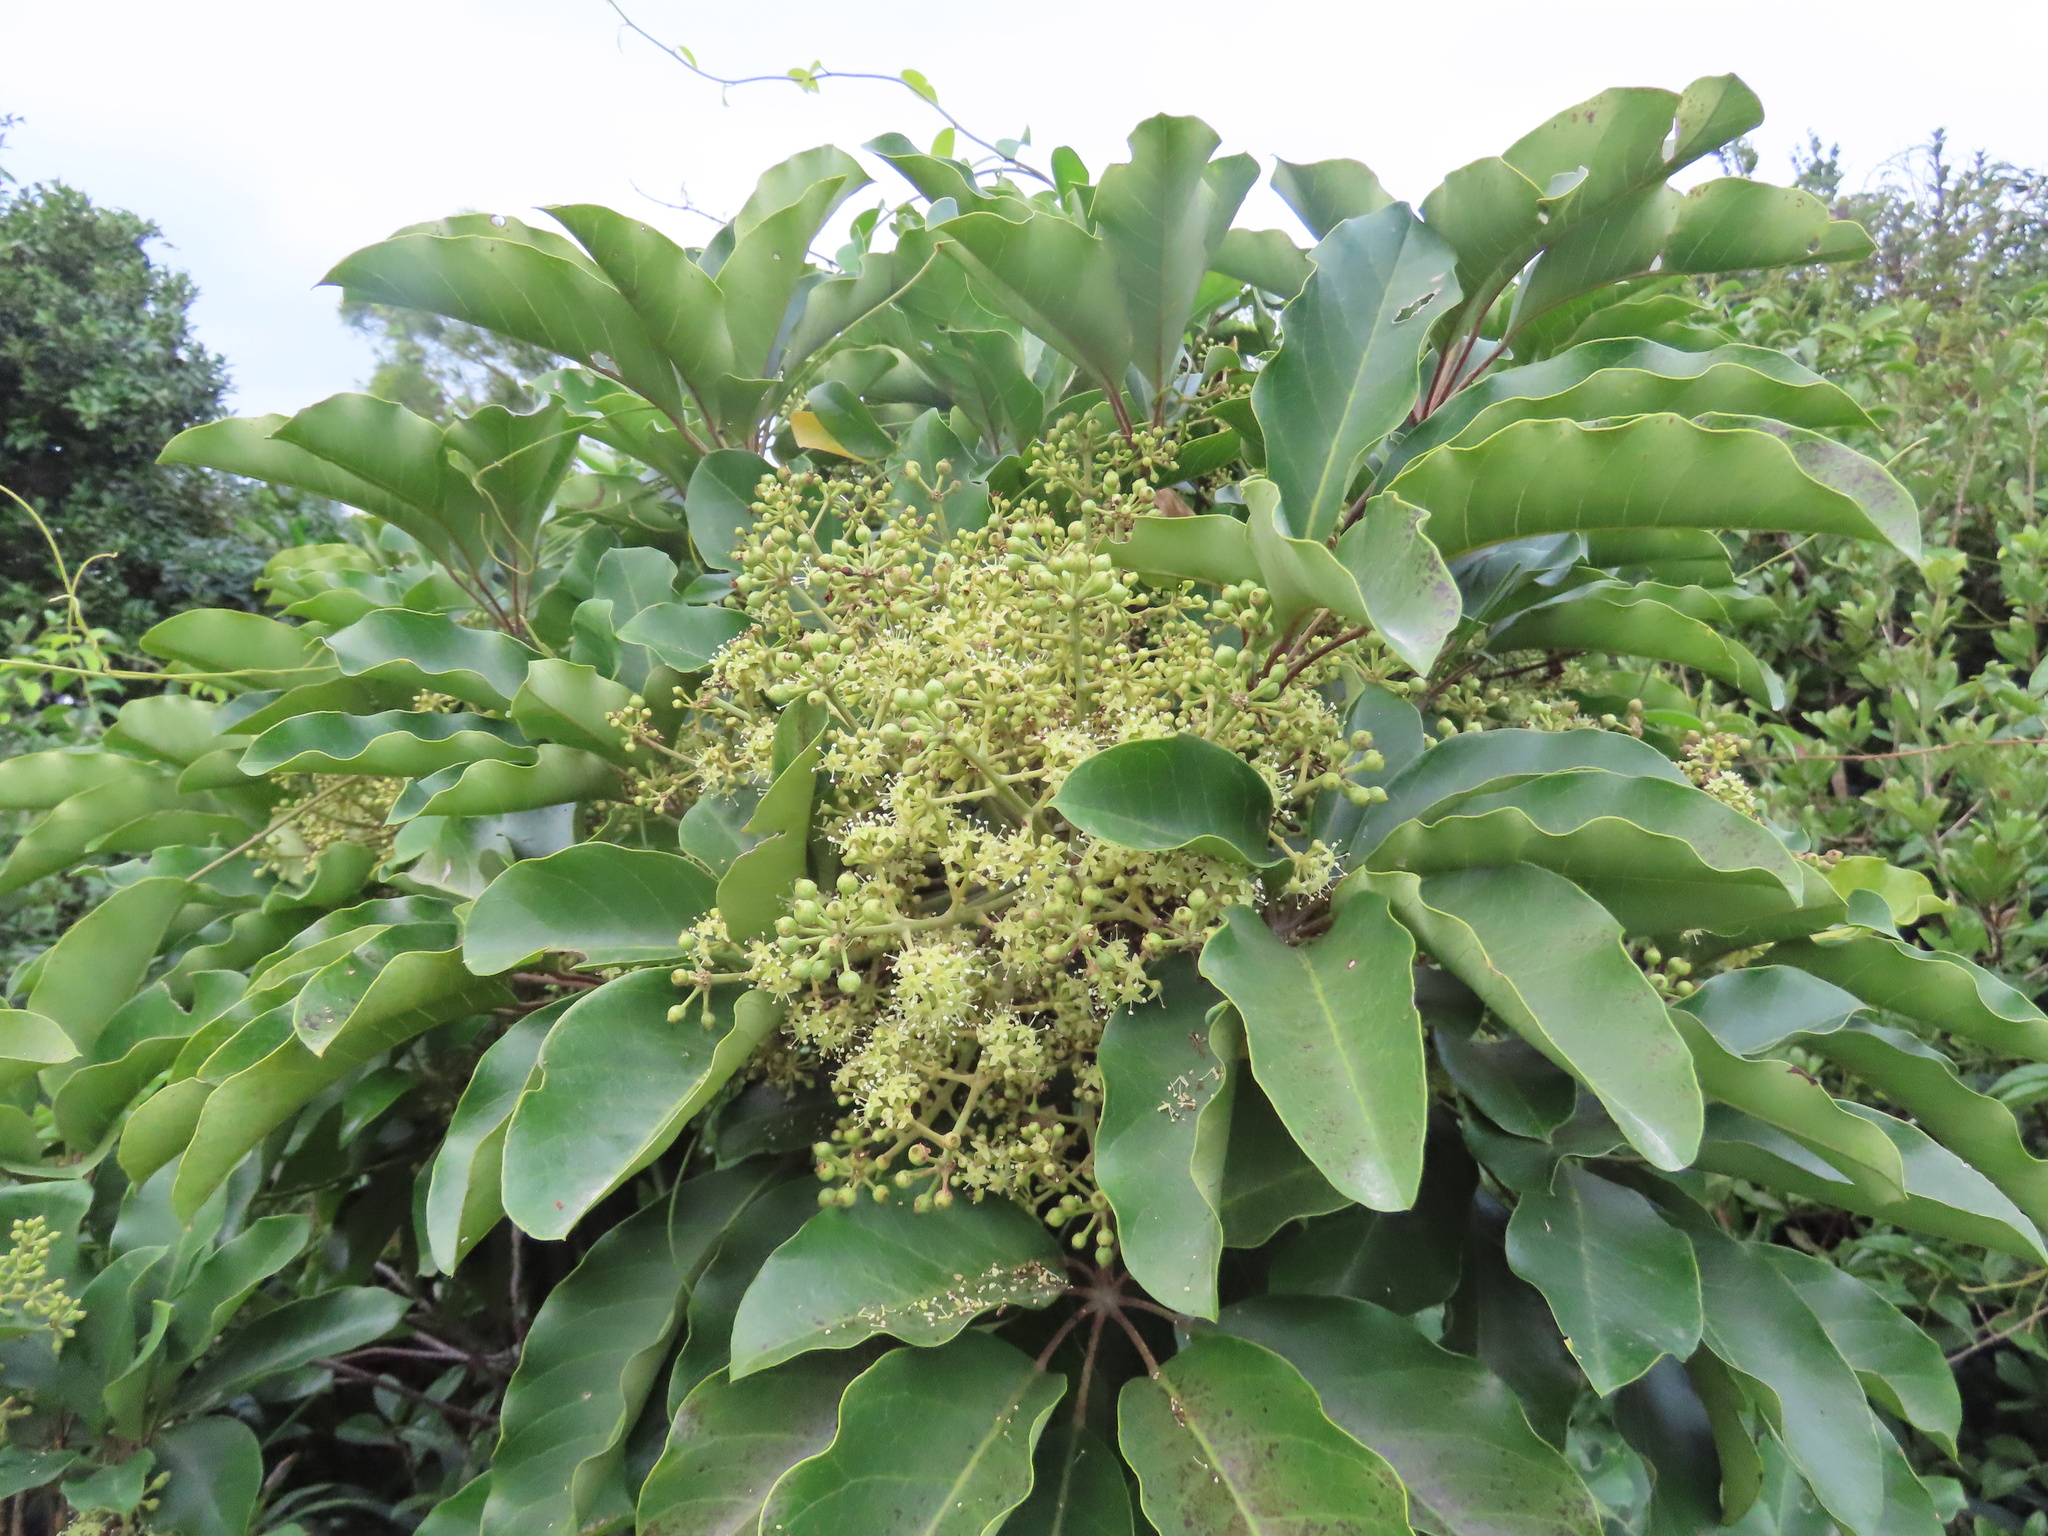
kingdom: Plantae
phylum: Tracheophyta
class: Magnoliopsida
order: Apiales
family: Araliaceae
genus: Heptapleurum
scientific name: Heptapleurum heptaphyllum
